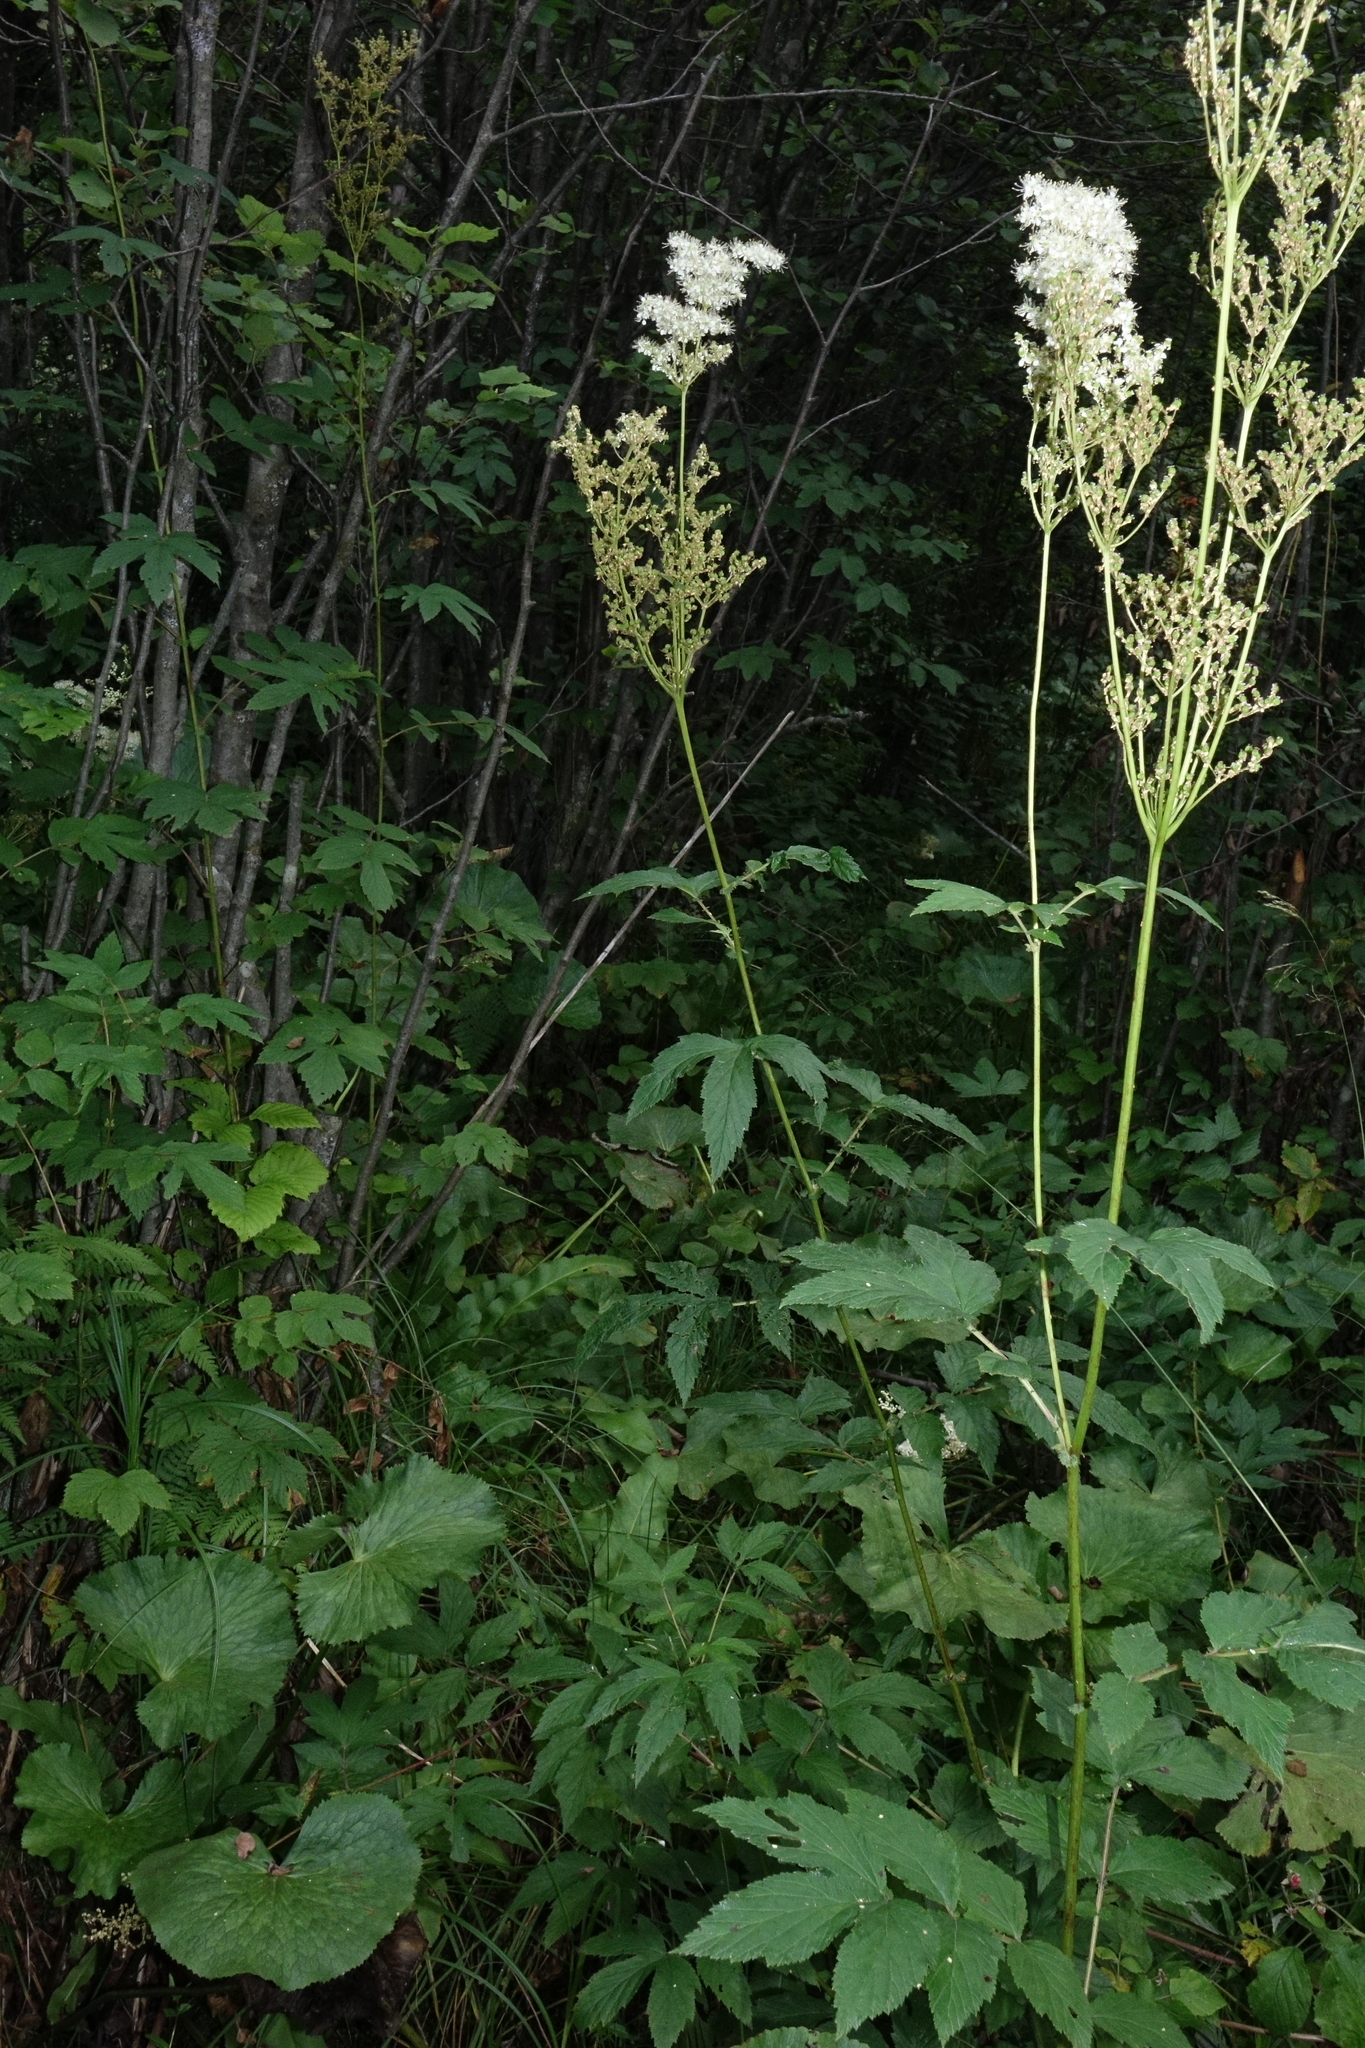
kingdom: Plantae
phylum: Tracheophyta
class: Magnoliopsida
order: Rosales
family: Rosaceae
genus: Filipendula
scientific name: Filipendula ulmaria
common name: Meadowsweet
